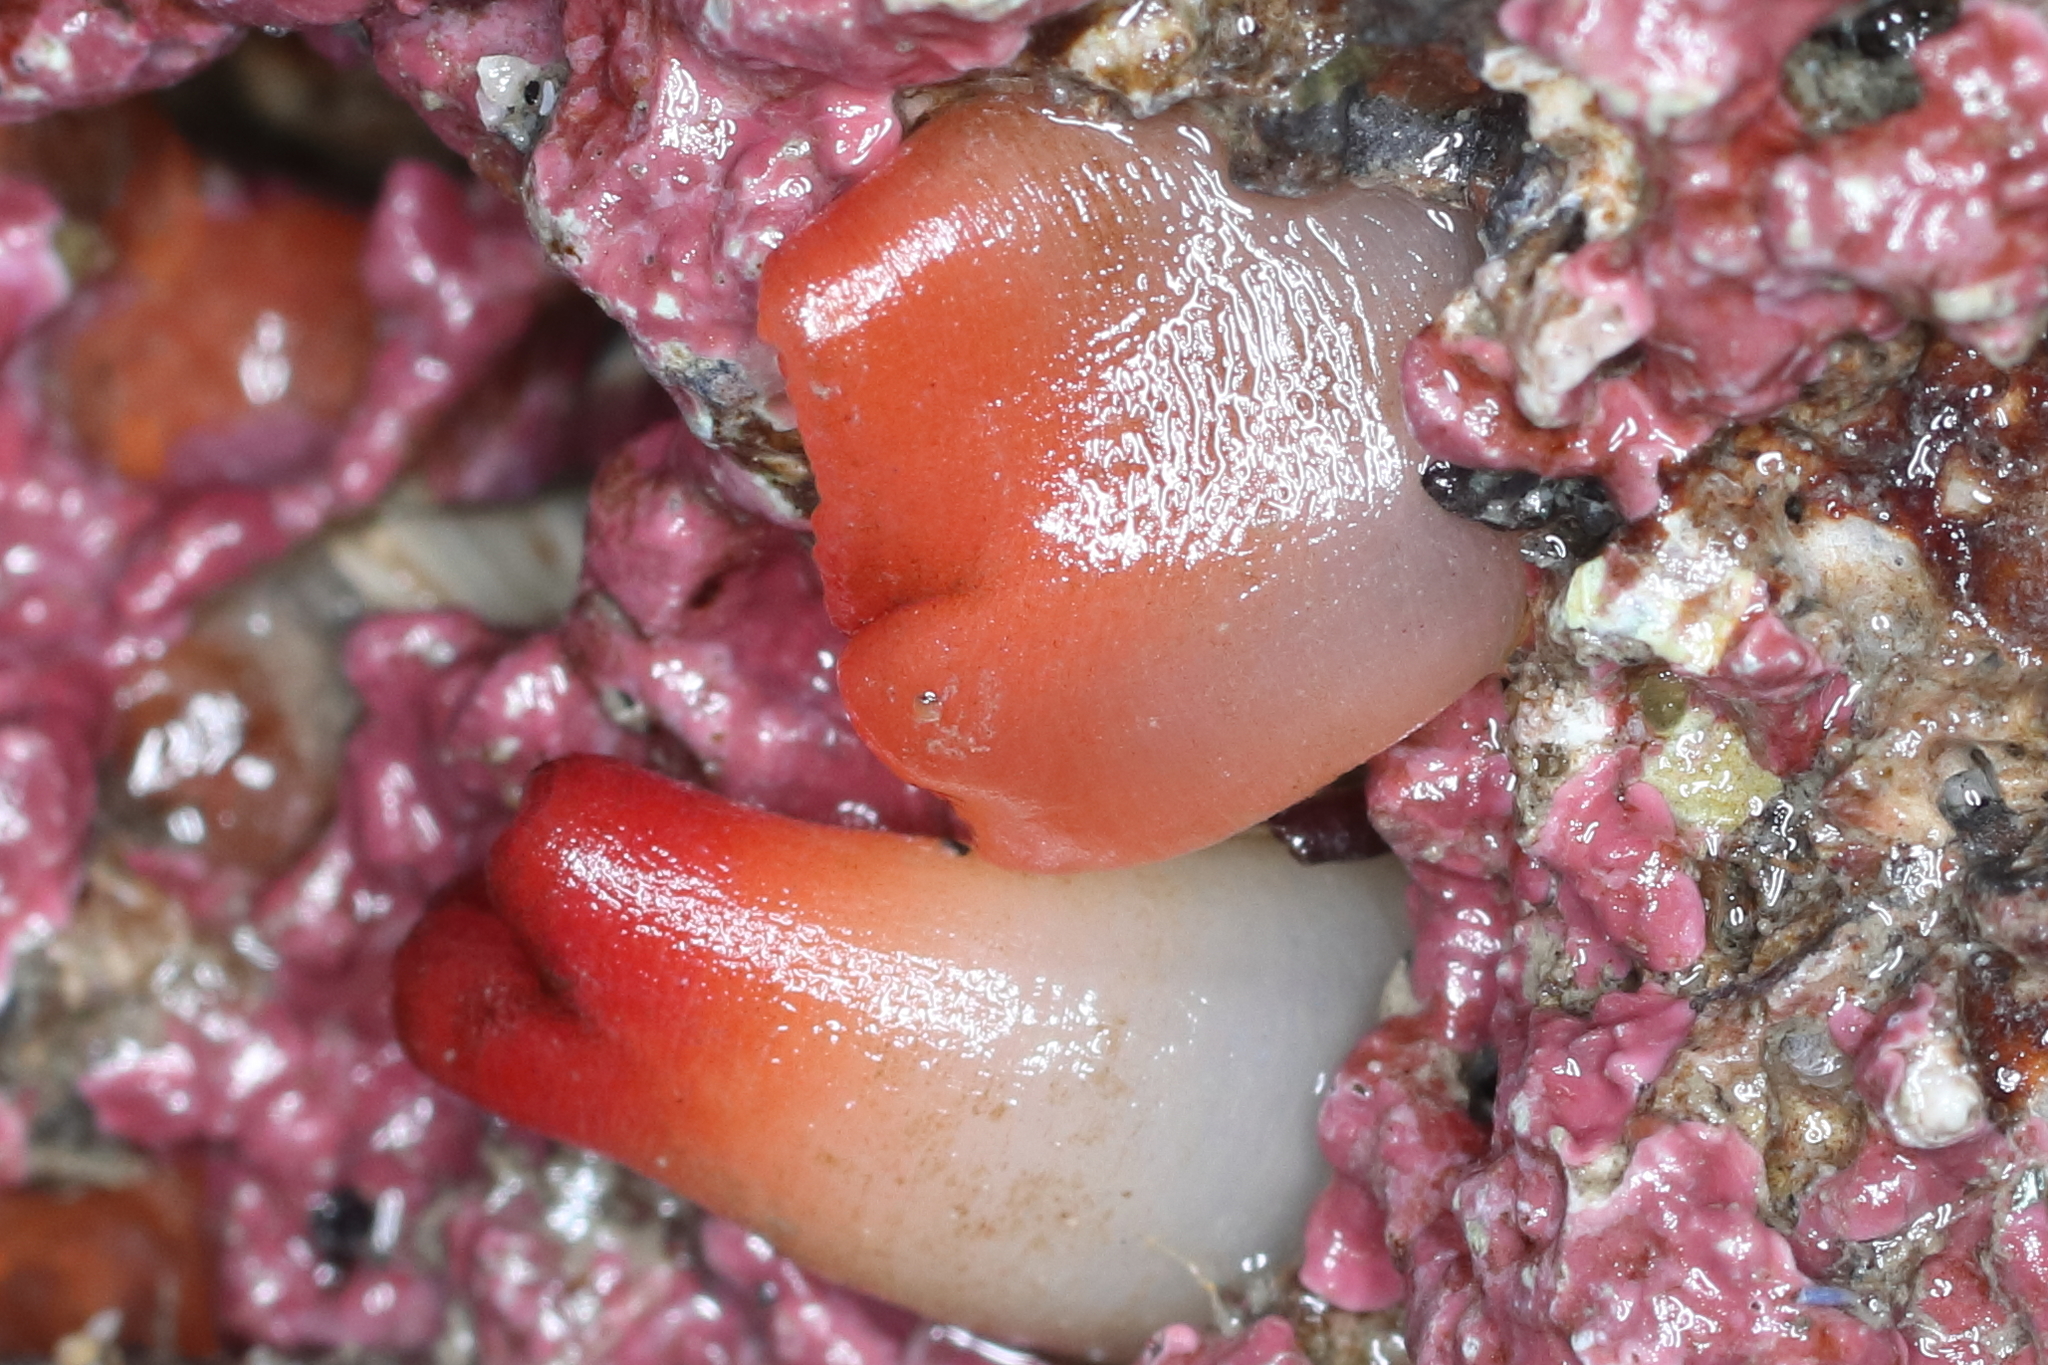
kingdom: Animalia
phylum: Mollusca
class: Bivalvia
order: Adapedonta
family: Hiatellidae
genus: Hiatella
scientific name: Hiatella arctica
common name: Arctic hiatella
